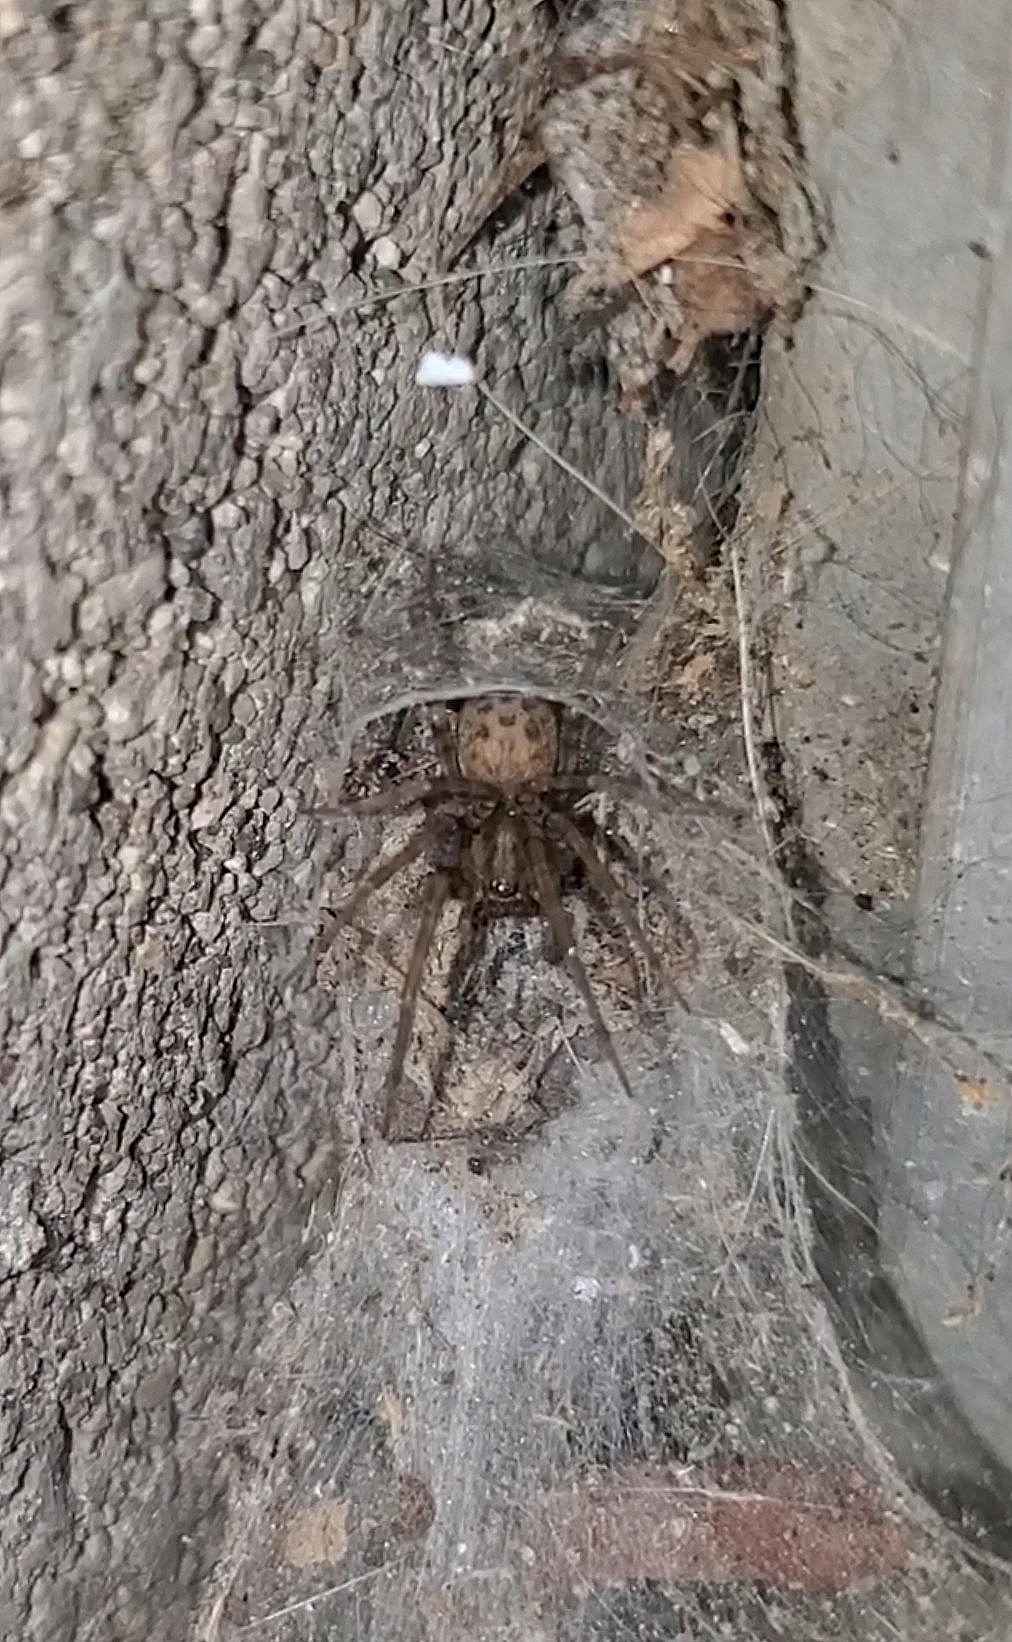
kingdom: Animalia
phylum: Arthropoda
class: Arachnida
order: Araneae
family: Agelenidae
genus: Tegenaria
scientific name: Tegenaria domestica
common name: Barn funnel weaver
